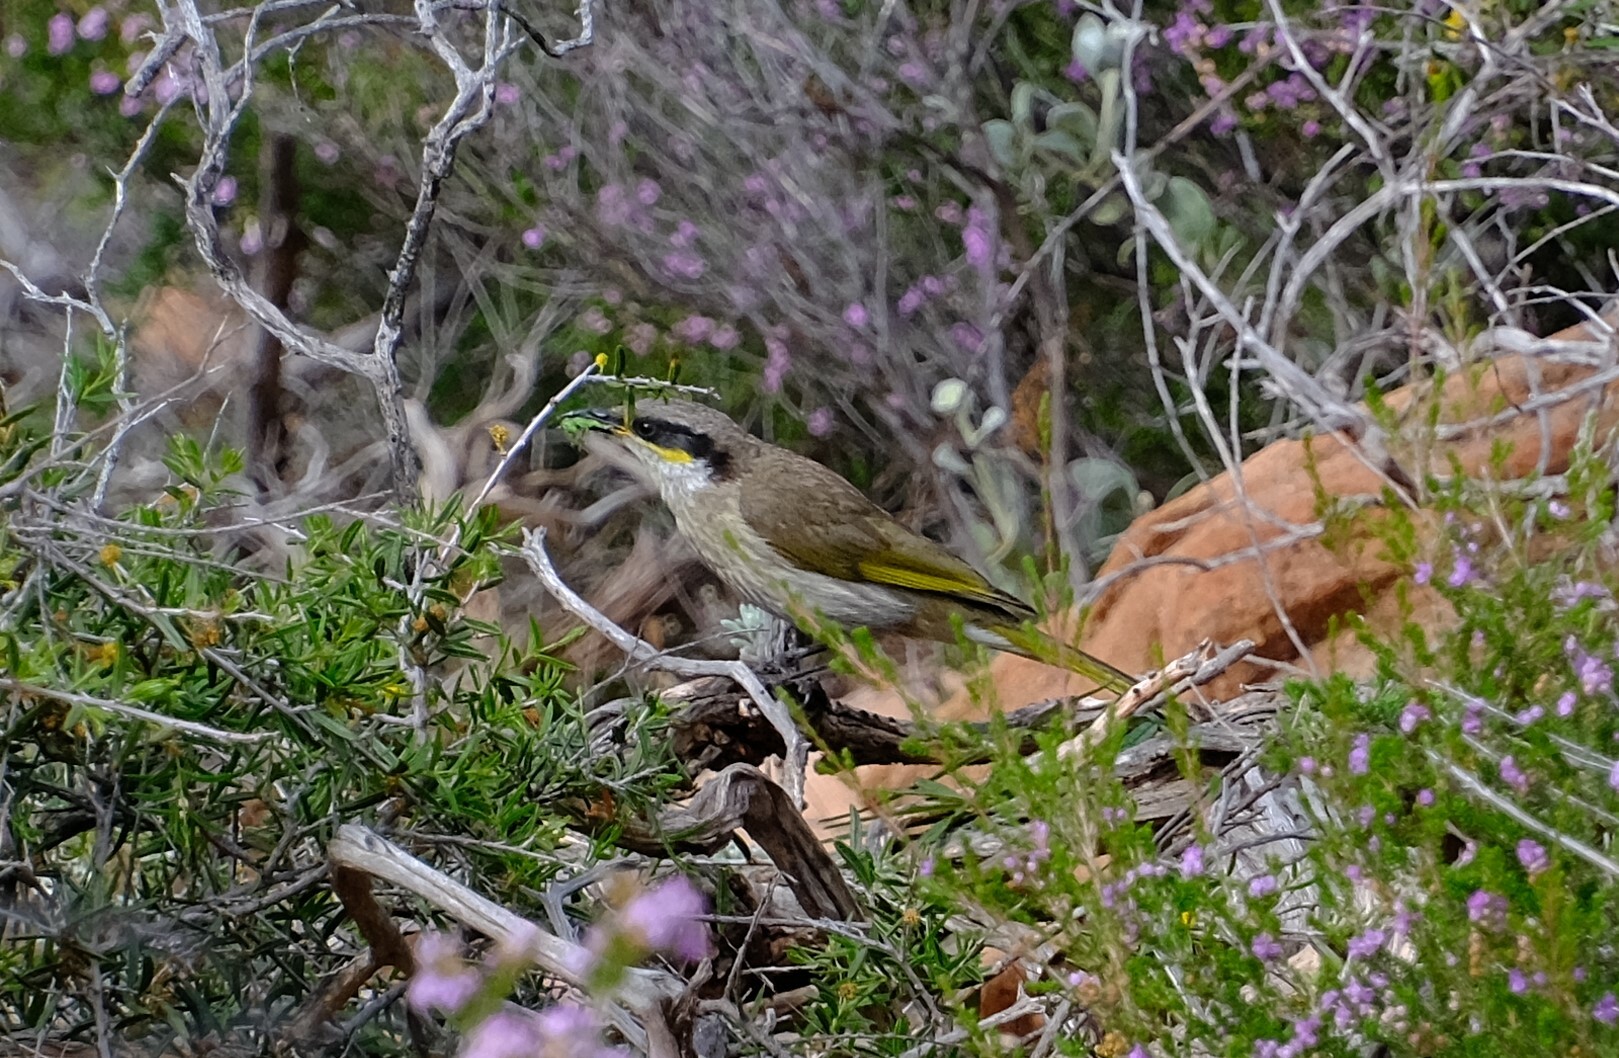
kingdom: Animalia
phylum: Chordata
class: Aves
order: Passeriformes
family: Meliphagidae
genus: Gavicalis
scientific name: Gavicalis virescens
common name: Singing honeyeater
